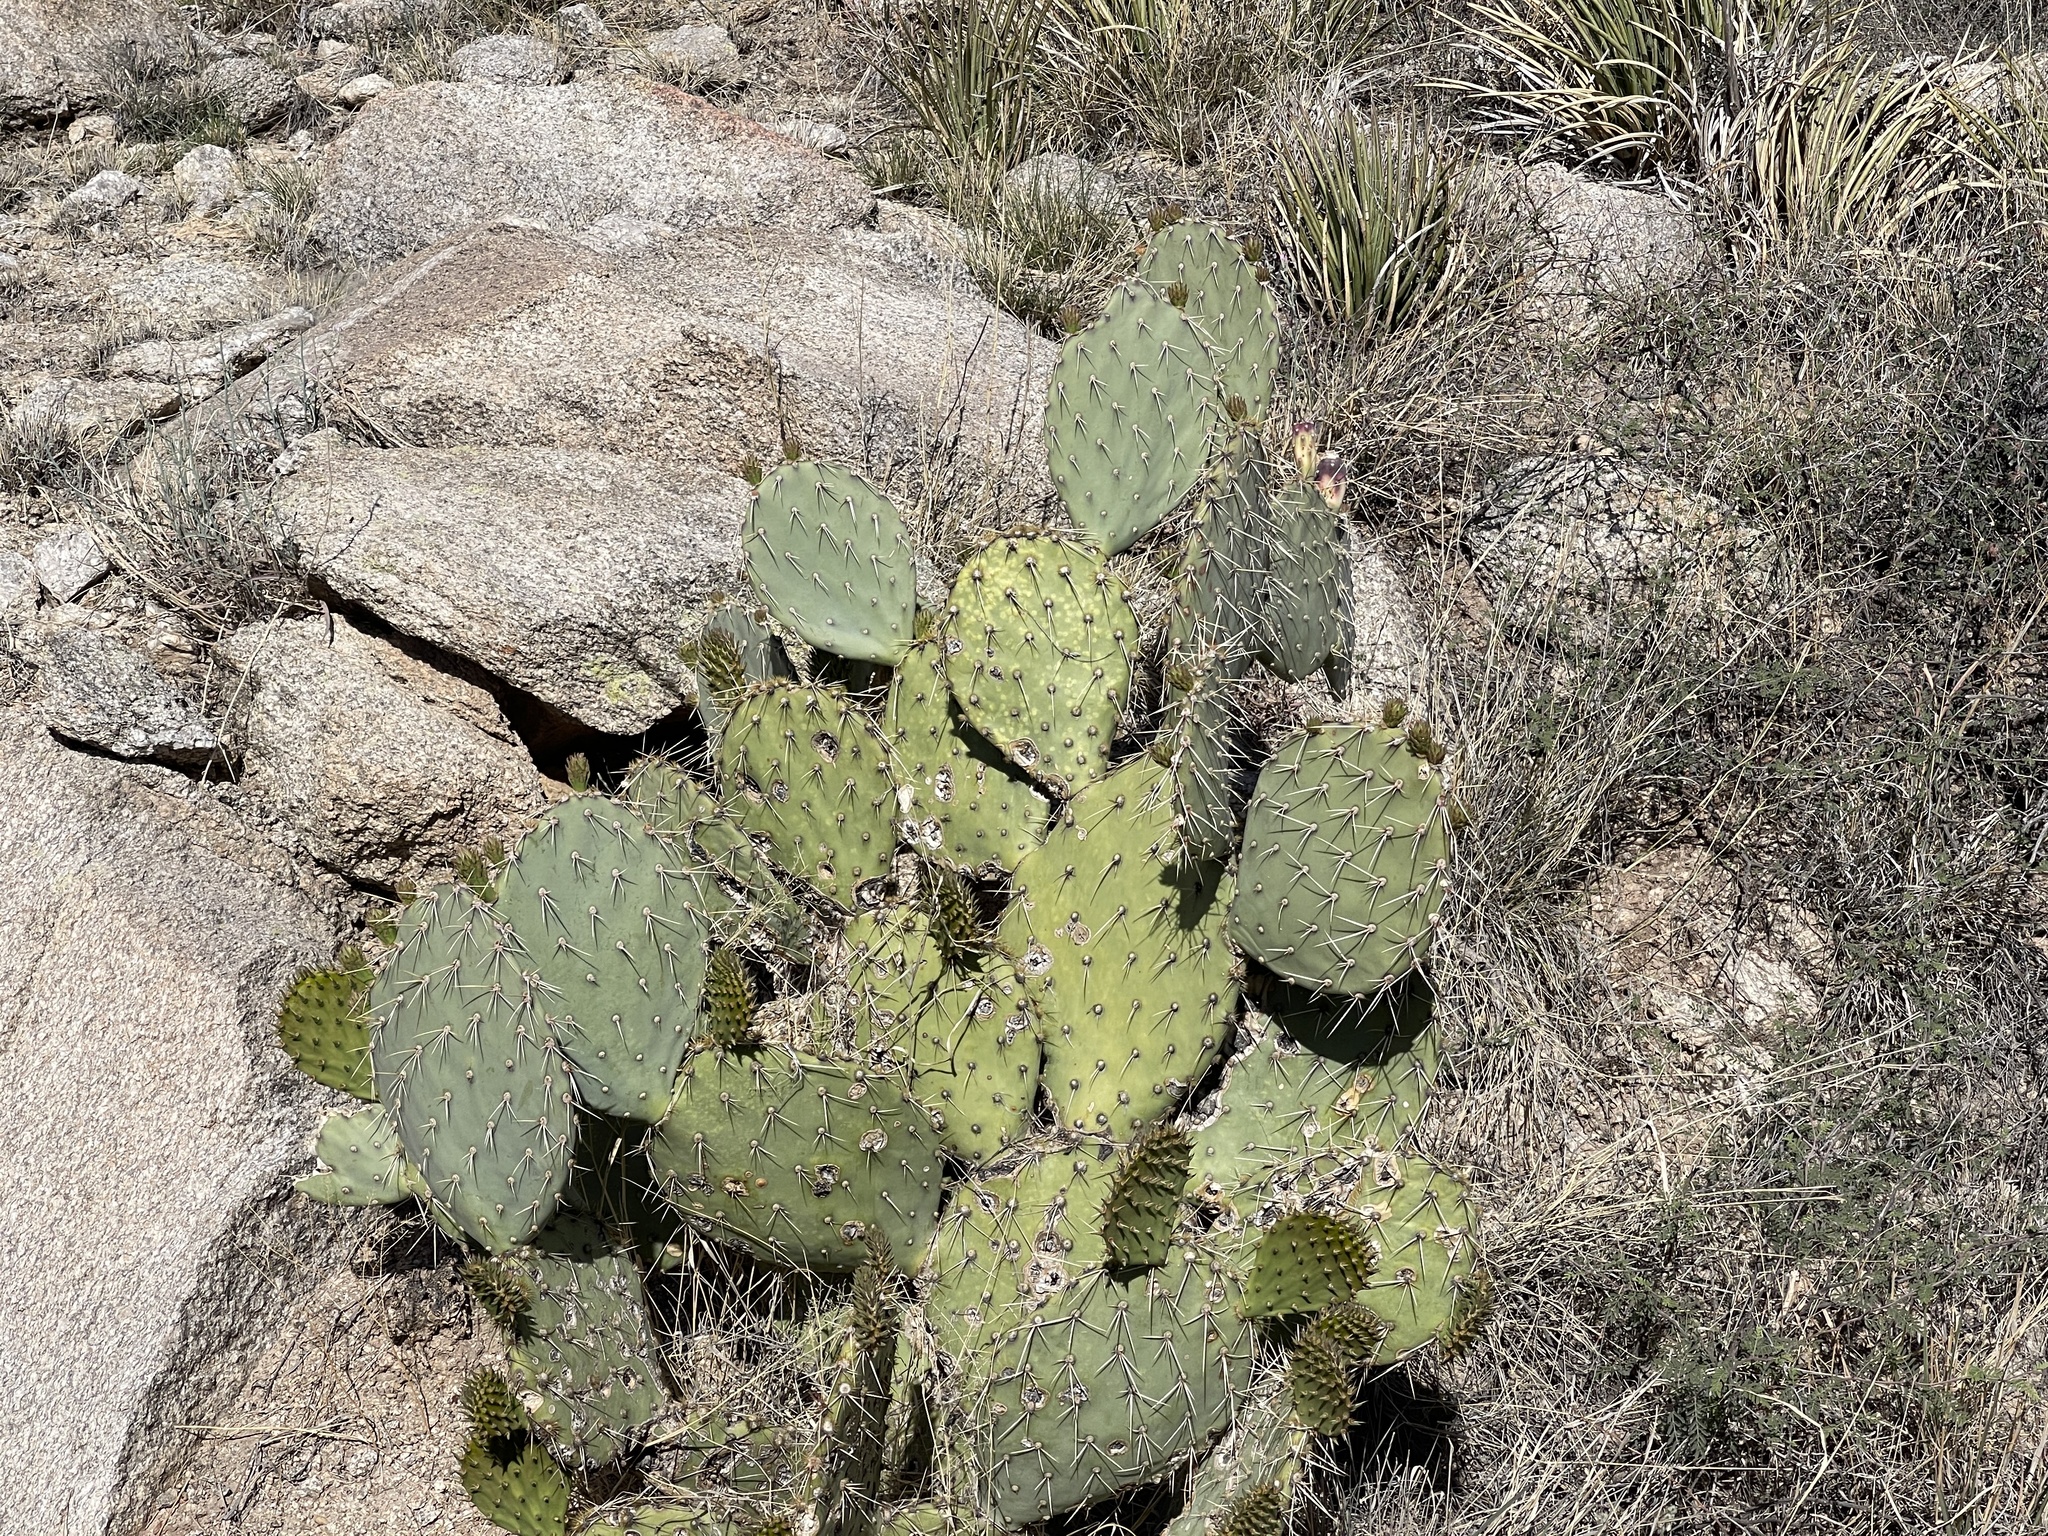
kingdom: Plantae
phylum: Tracheophyta
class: Magnoliopsida
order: Caryophyllales
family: Cactaceae
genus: Opuntia
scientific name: Opuntia engelmannii
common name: Cactus-apple
